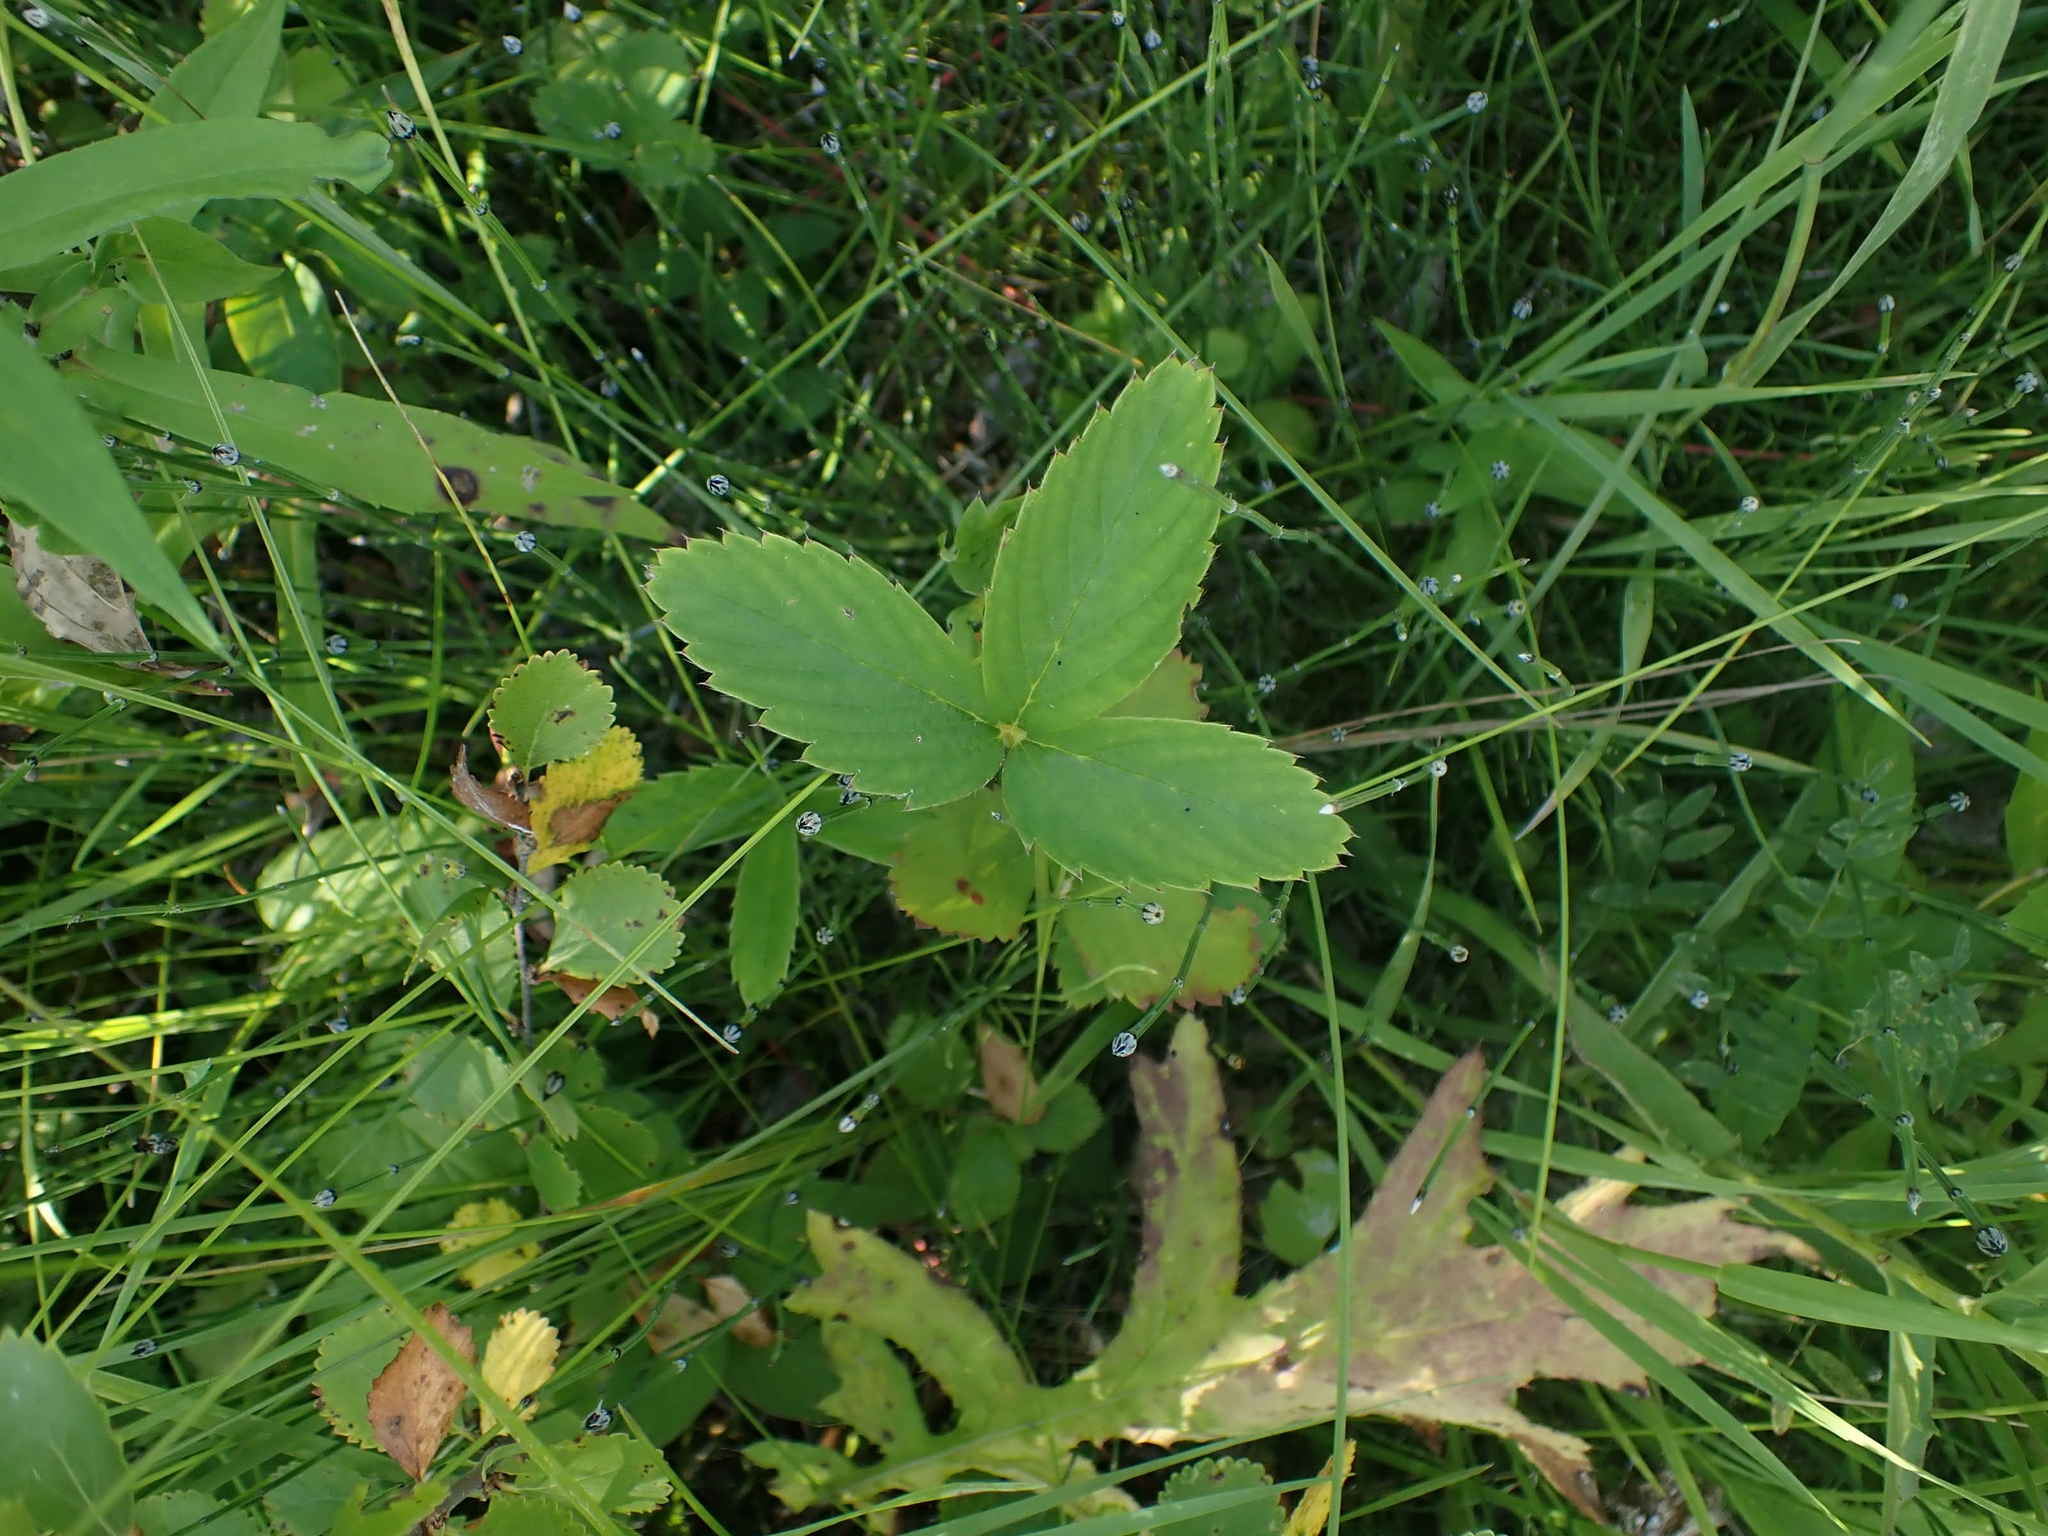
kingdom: Plantae
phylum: Tracheophyta
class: Magnoliopsida
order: Rosales
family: Rosaceae
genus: Fragaria
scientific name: Fragaria virginiana
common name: Thickleaved wild strawberry
